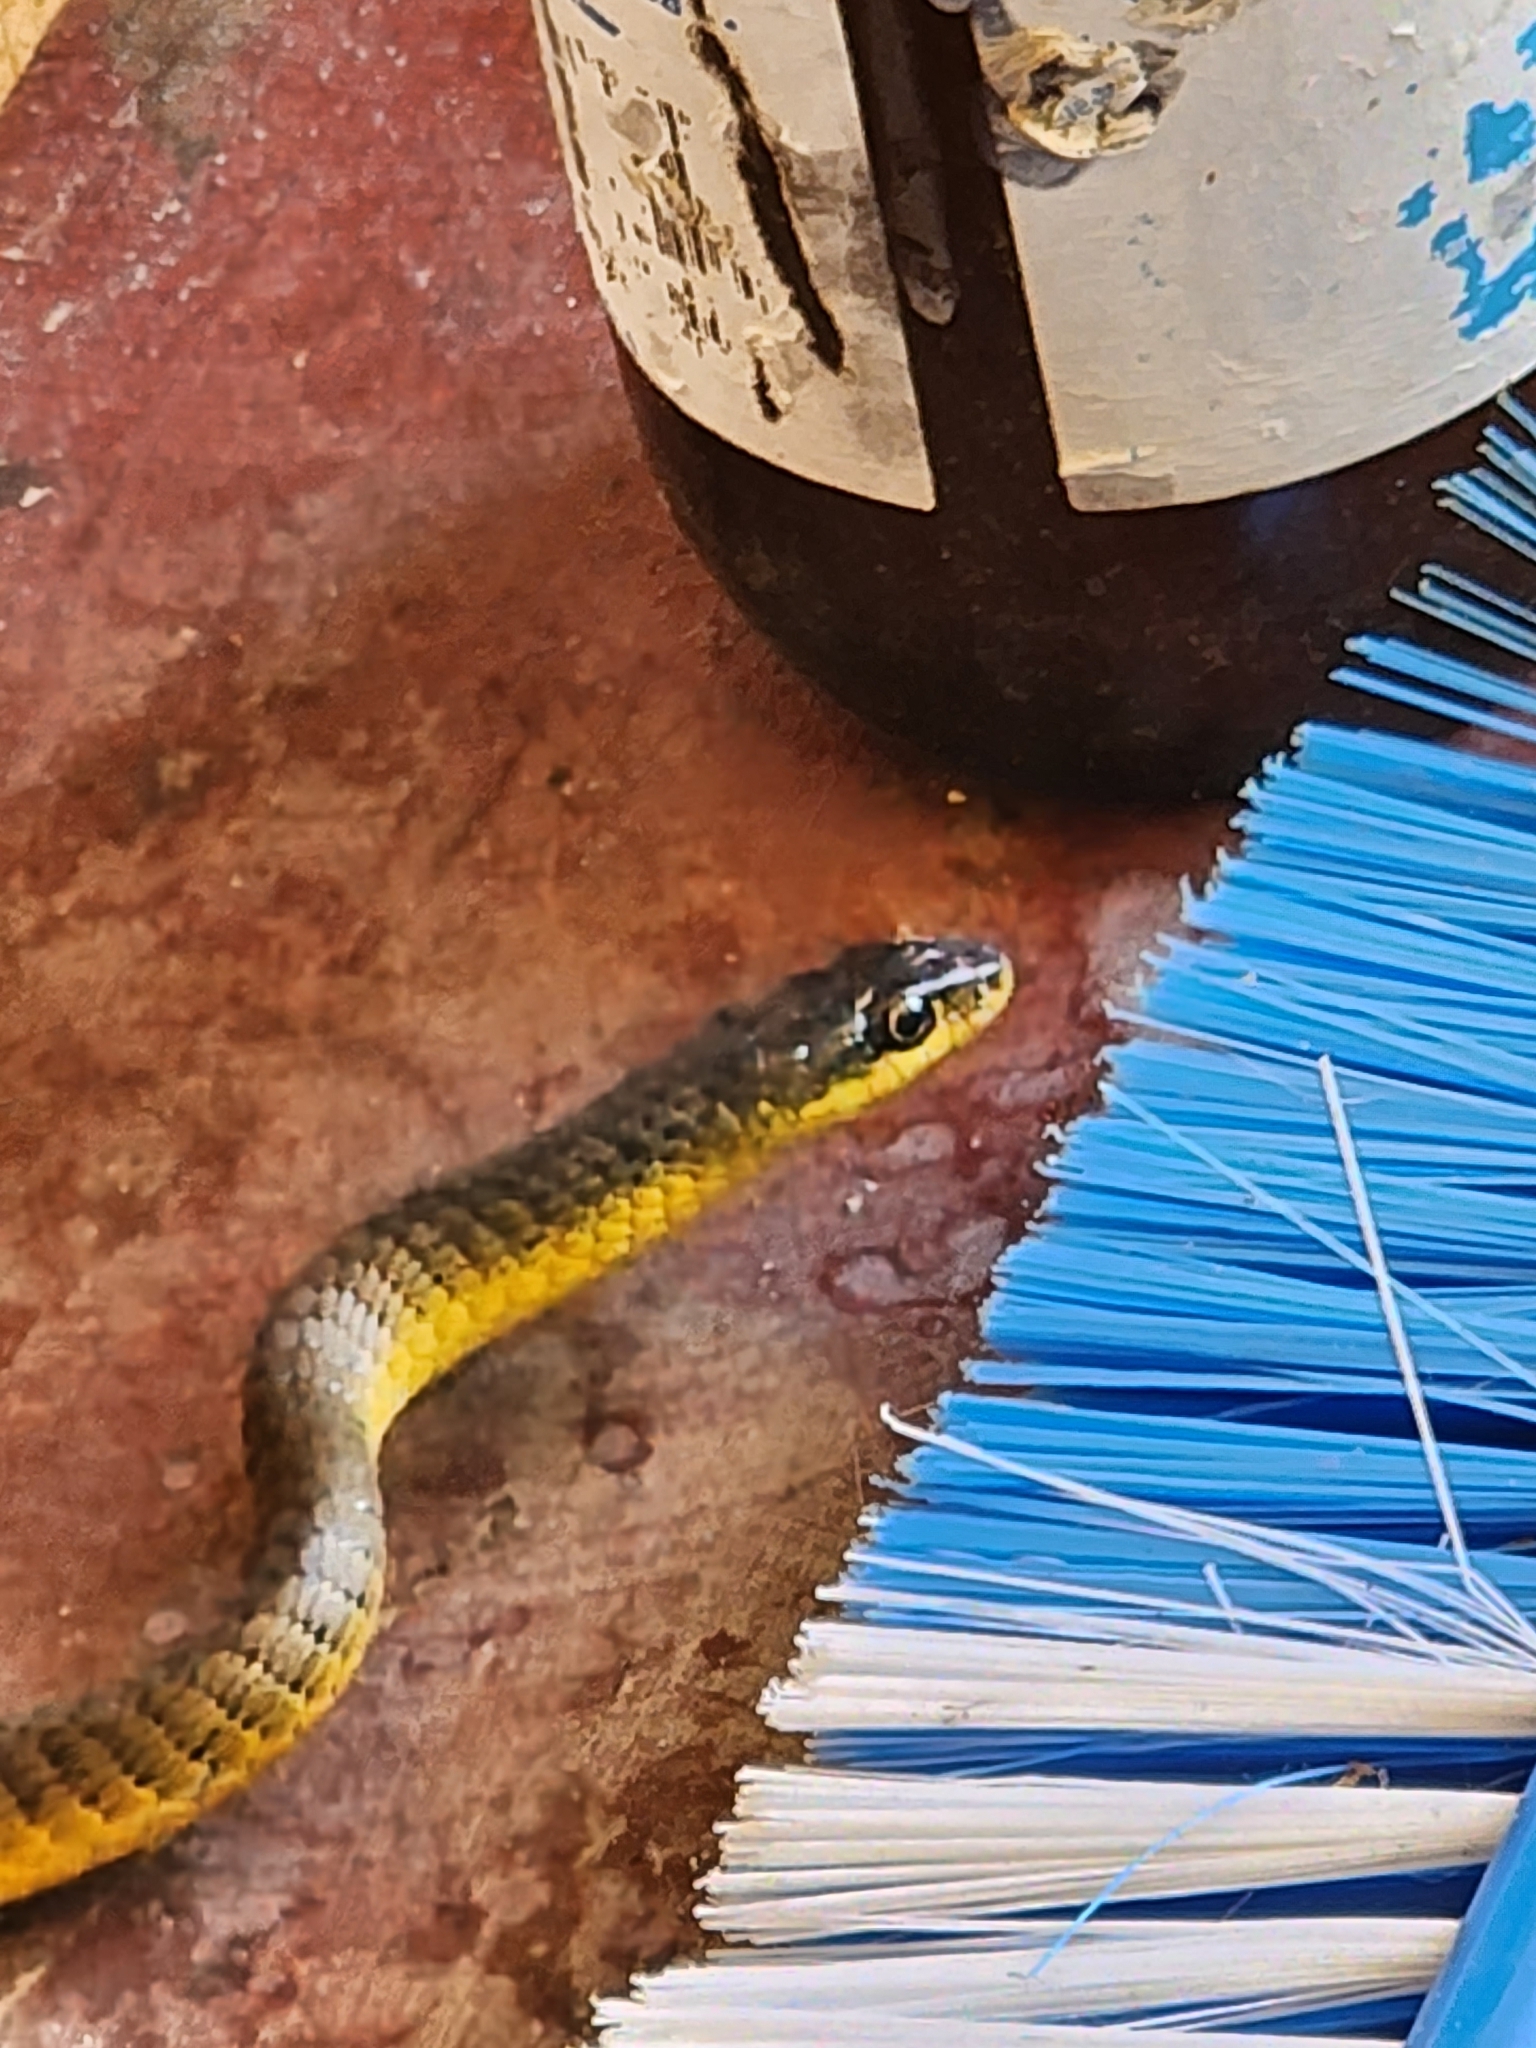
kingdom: Animalia
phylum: Chordata
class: Squamata
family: Colubridae
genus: Dendrelaphis
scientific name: Dendrelaphis punctulatus
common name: Common tree snake
